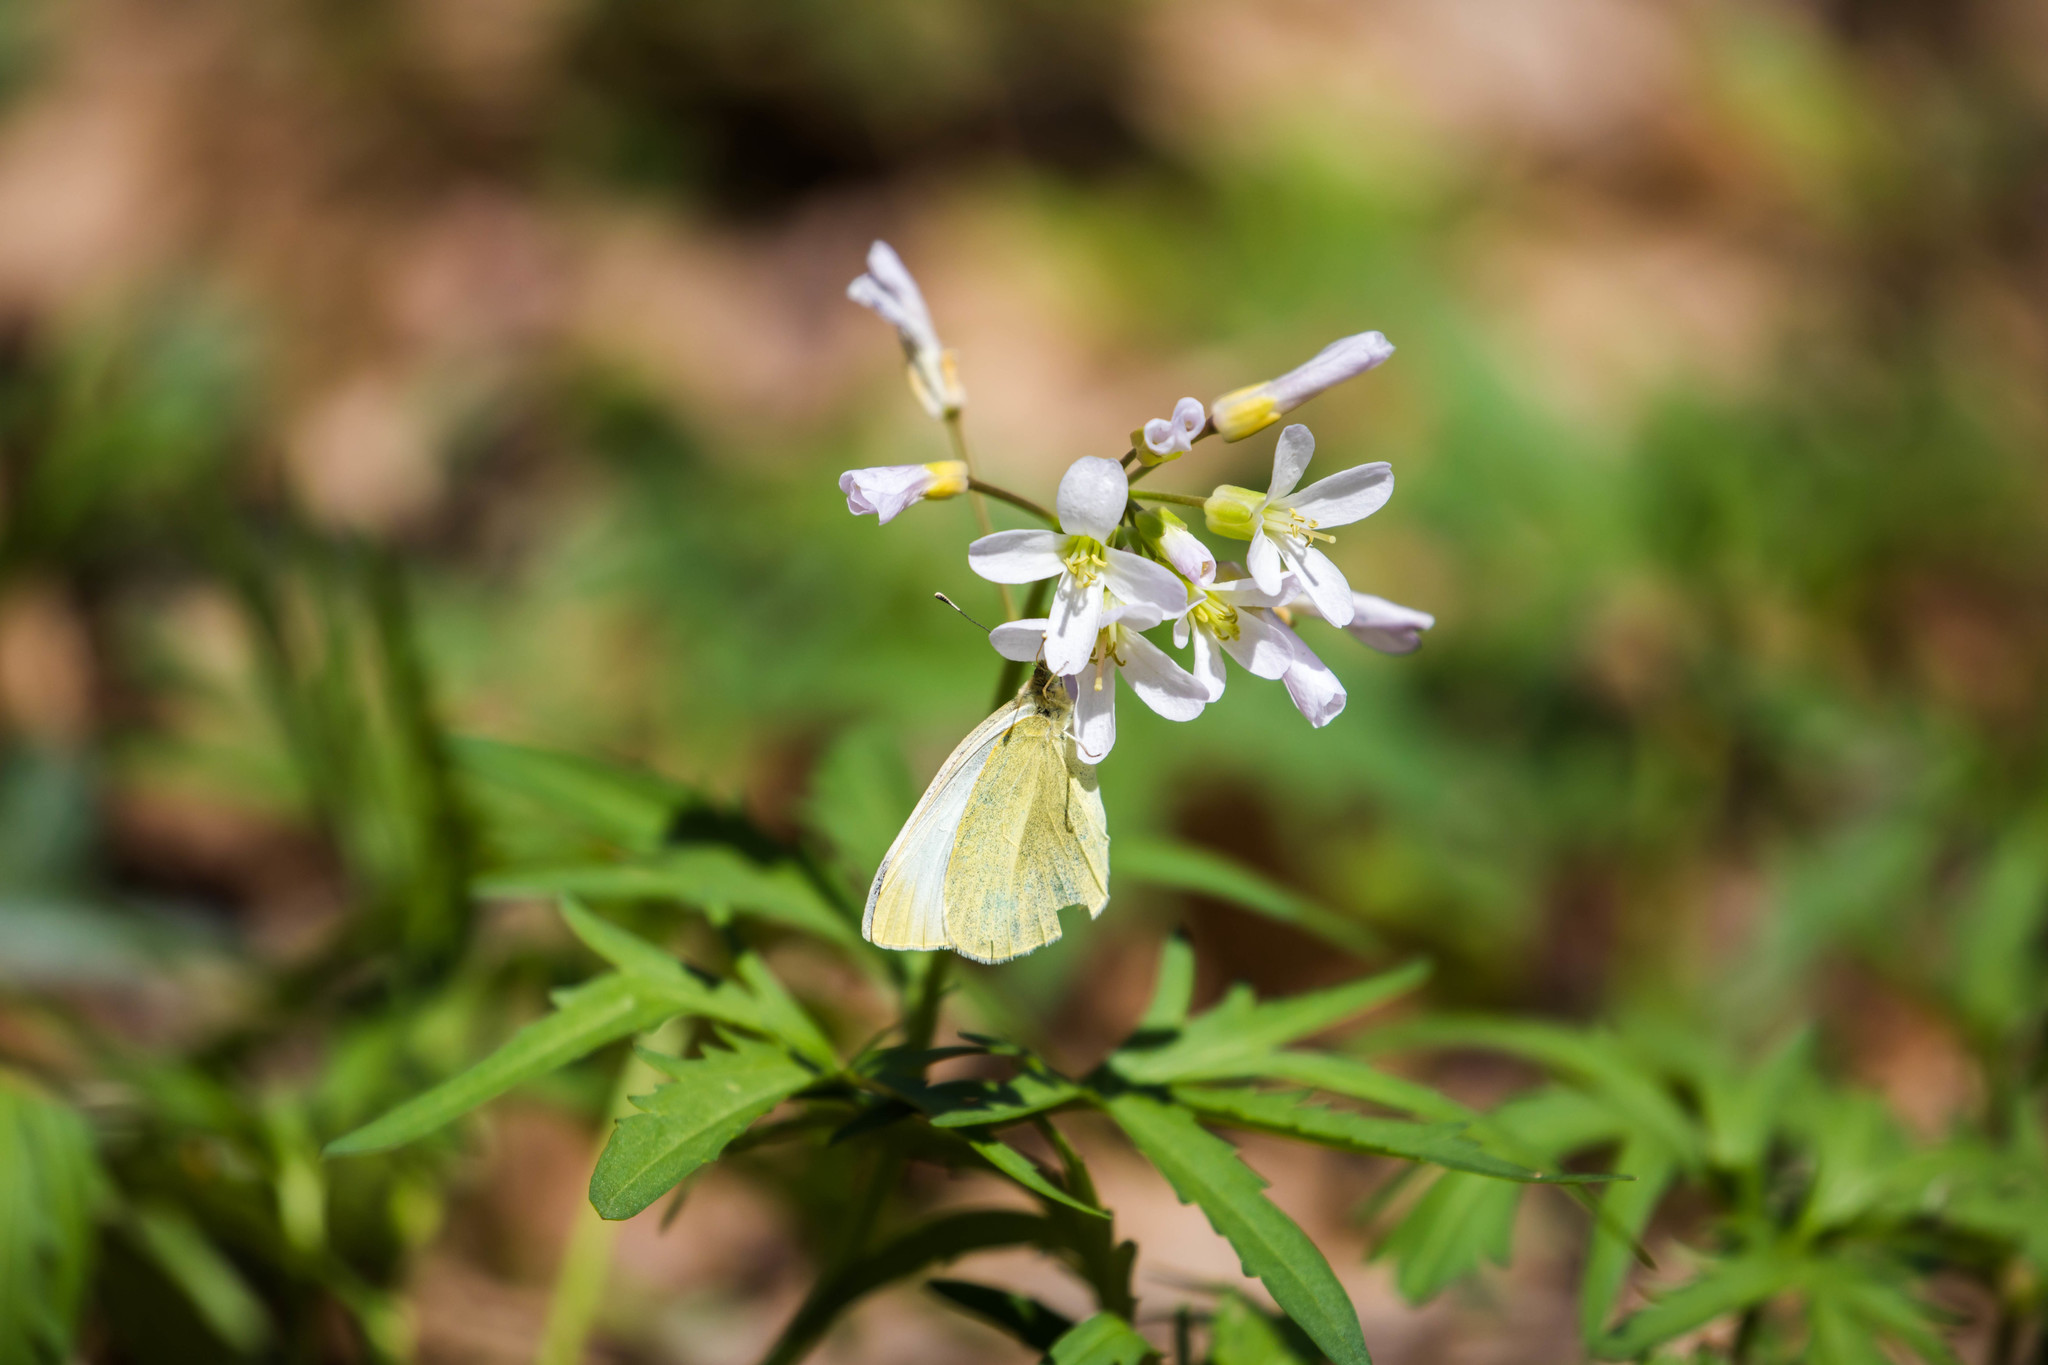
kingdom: Animalia
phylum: Arthropoda
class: Insecta
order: Lepidoptera
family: Pieridae
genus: Pieris
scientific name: Pieris rapae
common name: Small white
